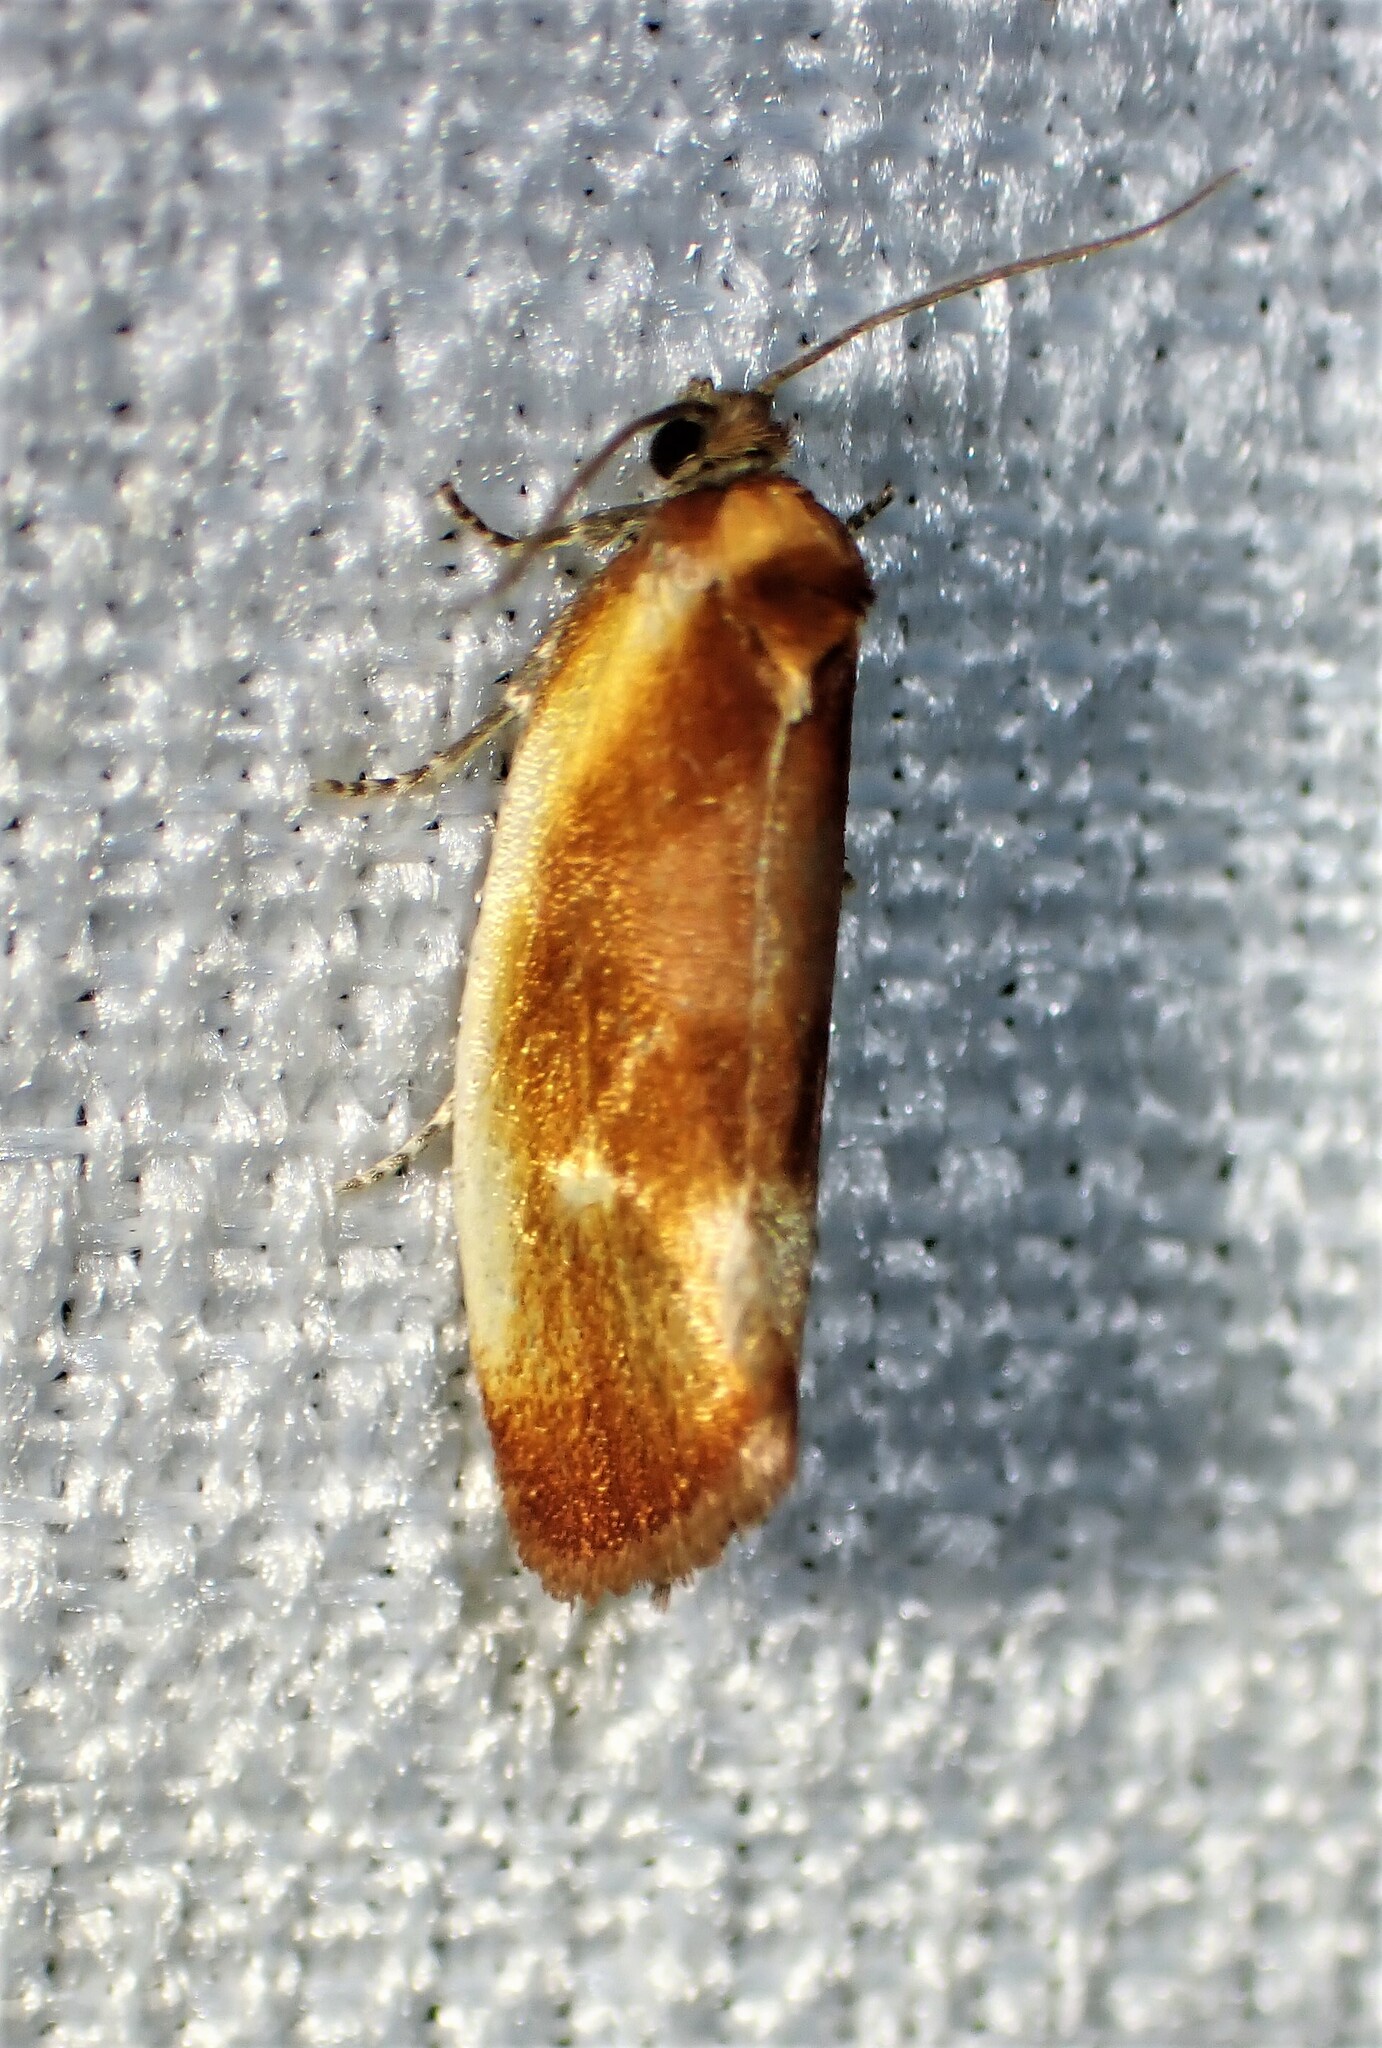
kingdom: Animalia
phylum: Arthropoda
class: Insecta
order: Lepidoptera
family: Tortricidae
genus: Eulia
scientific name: Eulia ministrana
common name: Brassy twist
